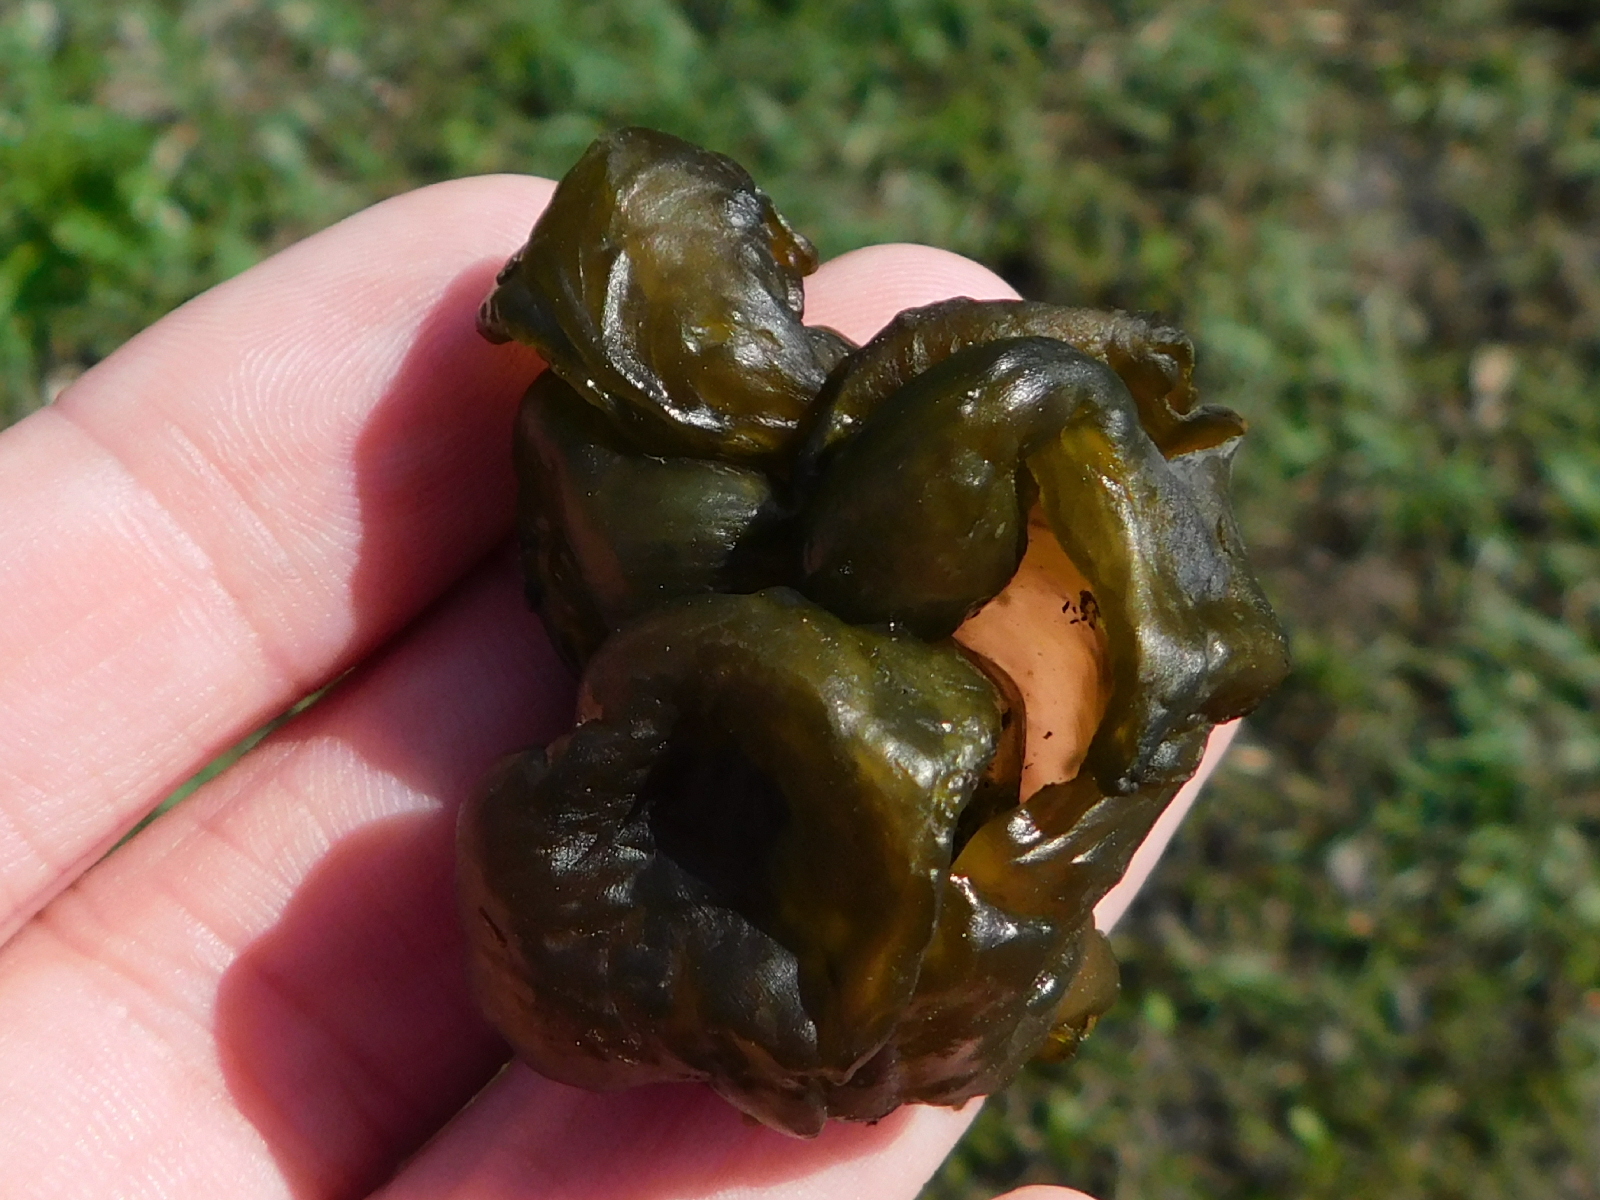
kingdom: Bacteria
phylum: Cyanobacteria
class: Cyanobacteriia
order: Cyanobacteriales
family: Nostocaceae
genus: Nostoc
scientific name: Nostoc commune
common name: Star jelly
